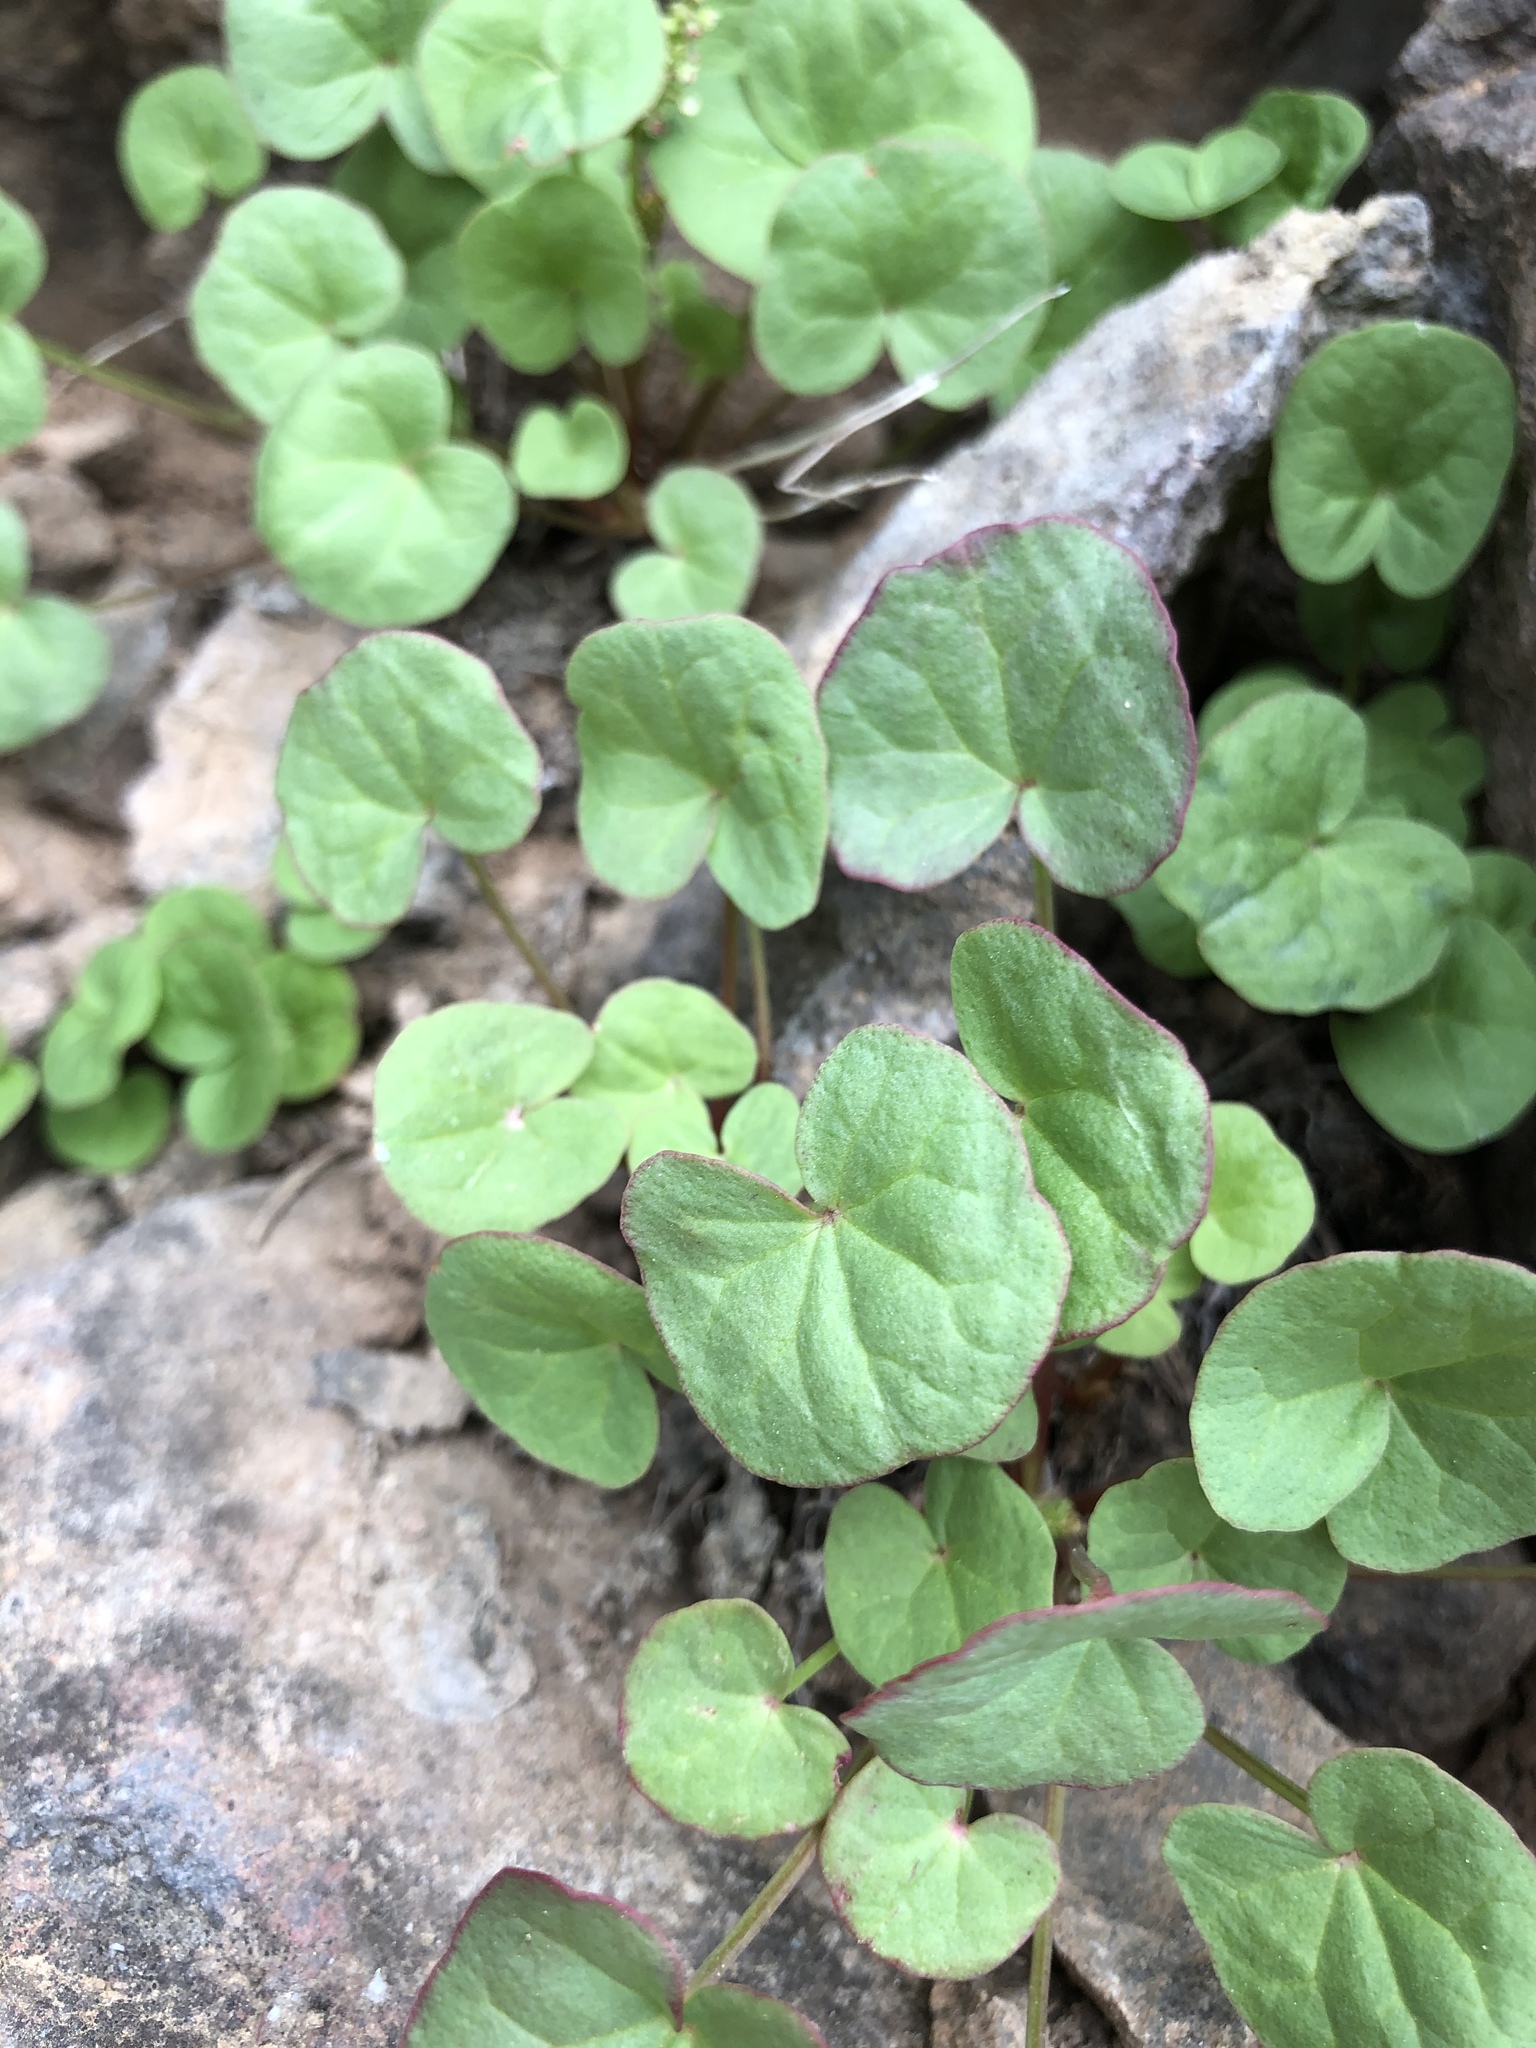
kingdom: Plantae
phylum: Tracheophyta
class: Magnoliopsida
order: Caryophyllales
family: Polygonaceae
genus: Oxyria
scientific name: Oxyria digyna
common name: Alpine mountain-sorrel
